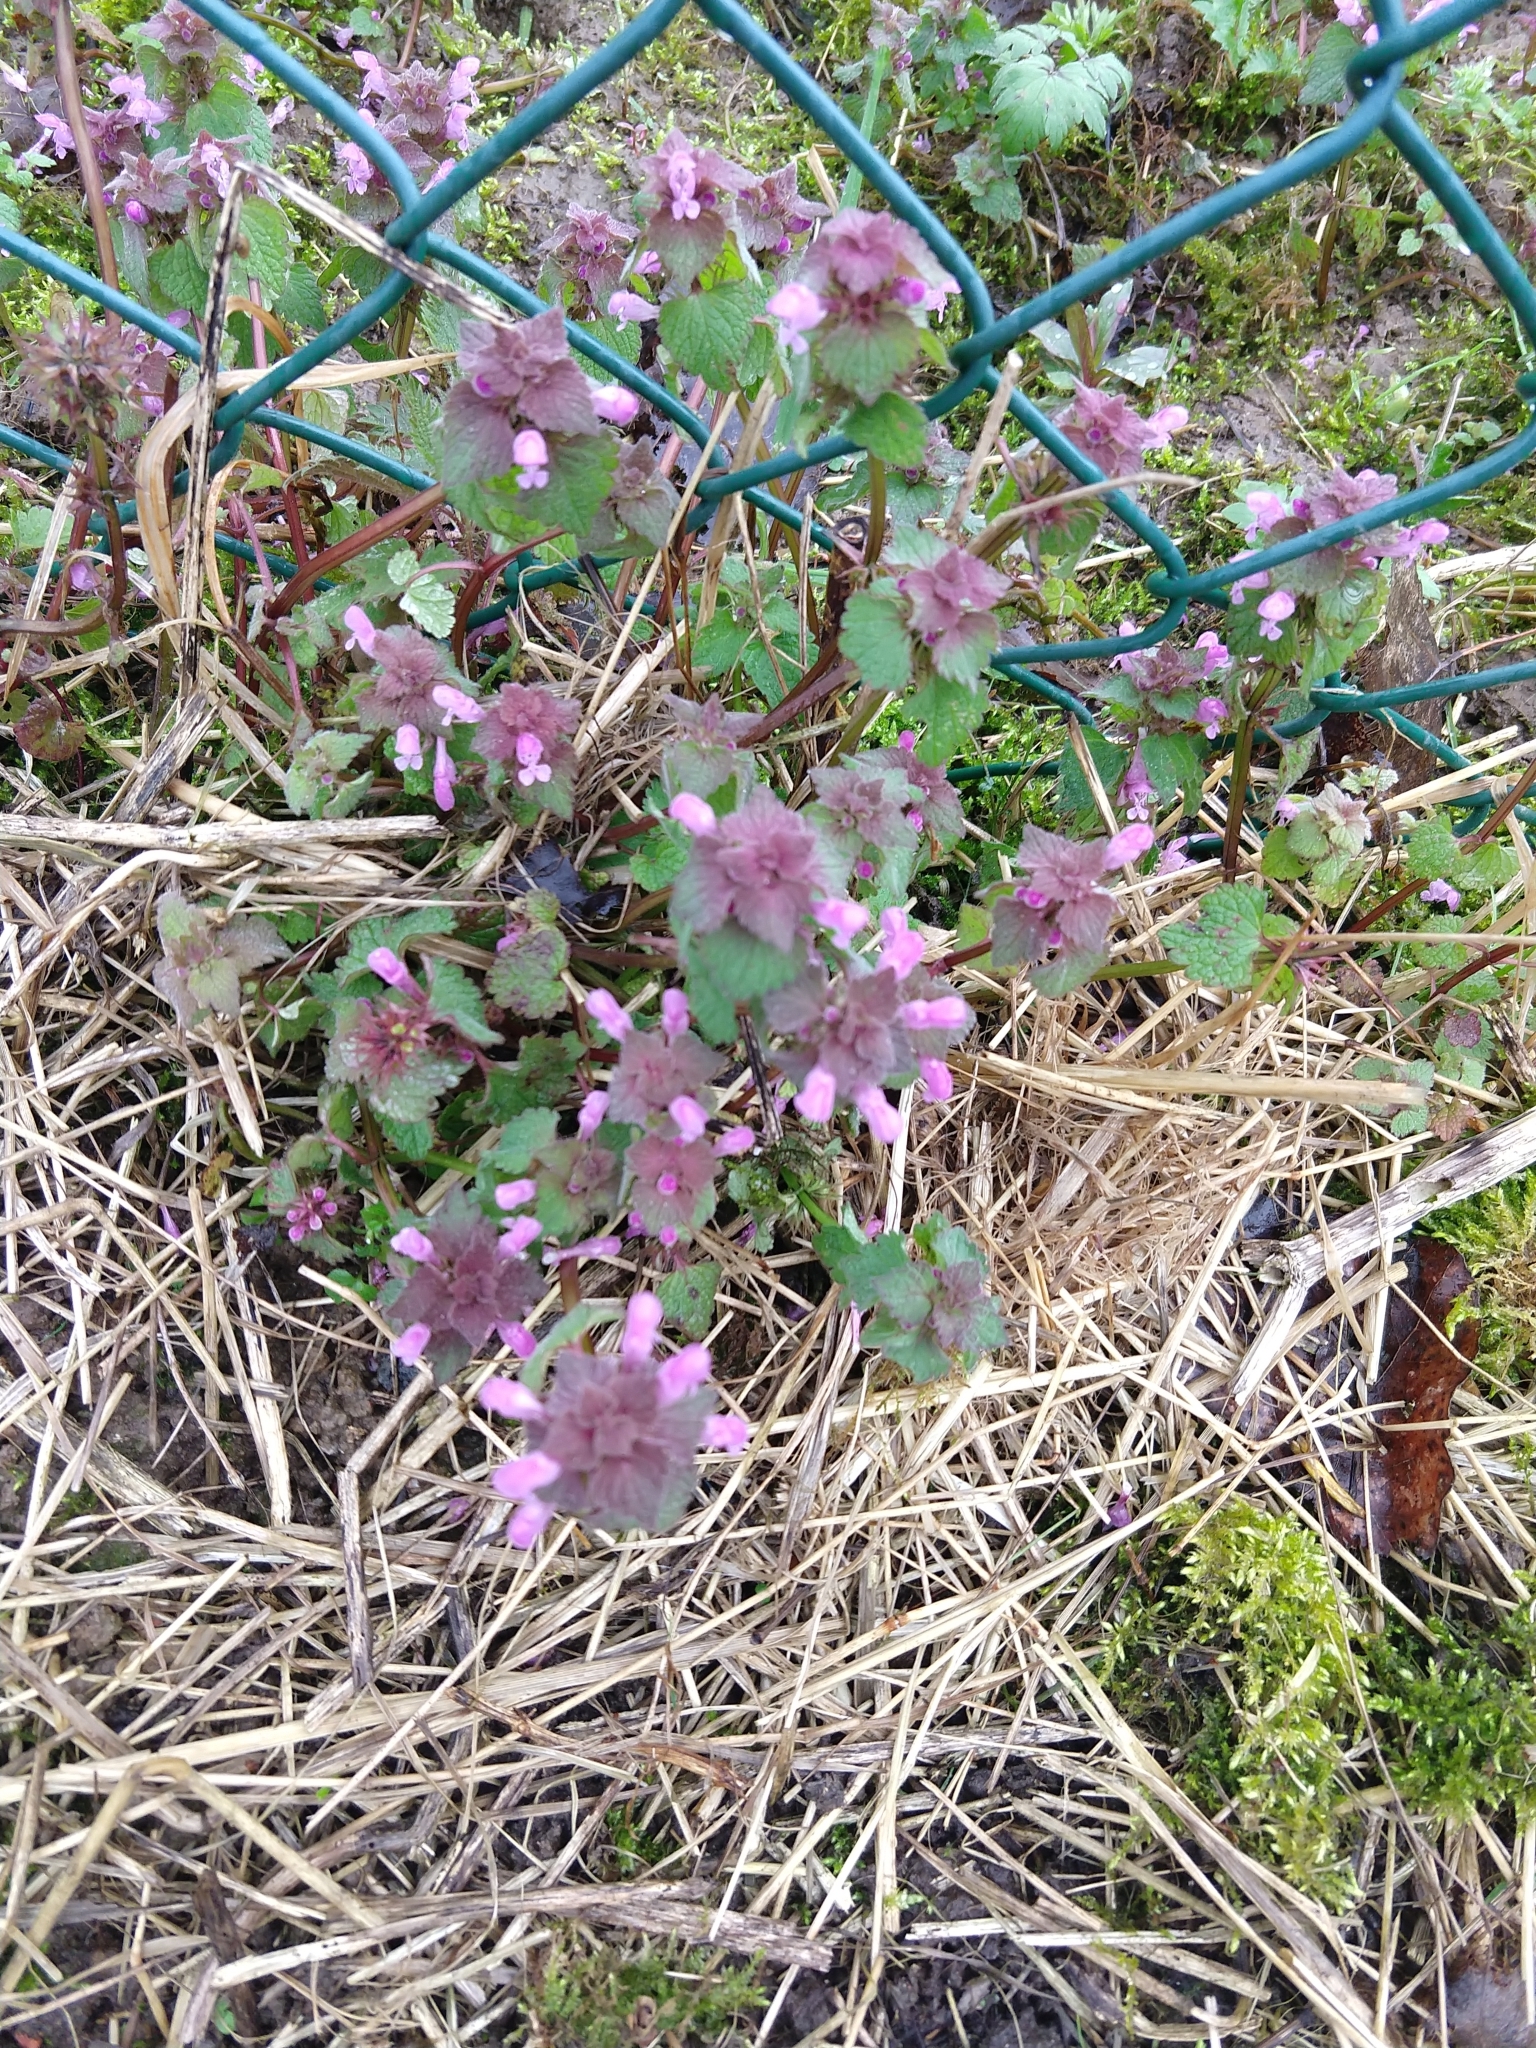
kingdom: Plantae
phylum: Tracheophyta
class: Magnoliopsida
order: Lamiales
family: Lamiaceae
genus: Lamium
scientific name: Lamium purpureum
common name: Red dead-nettle
